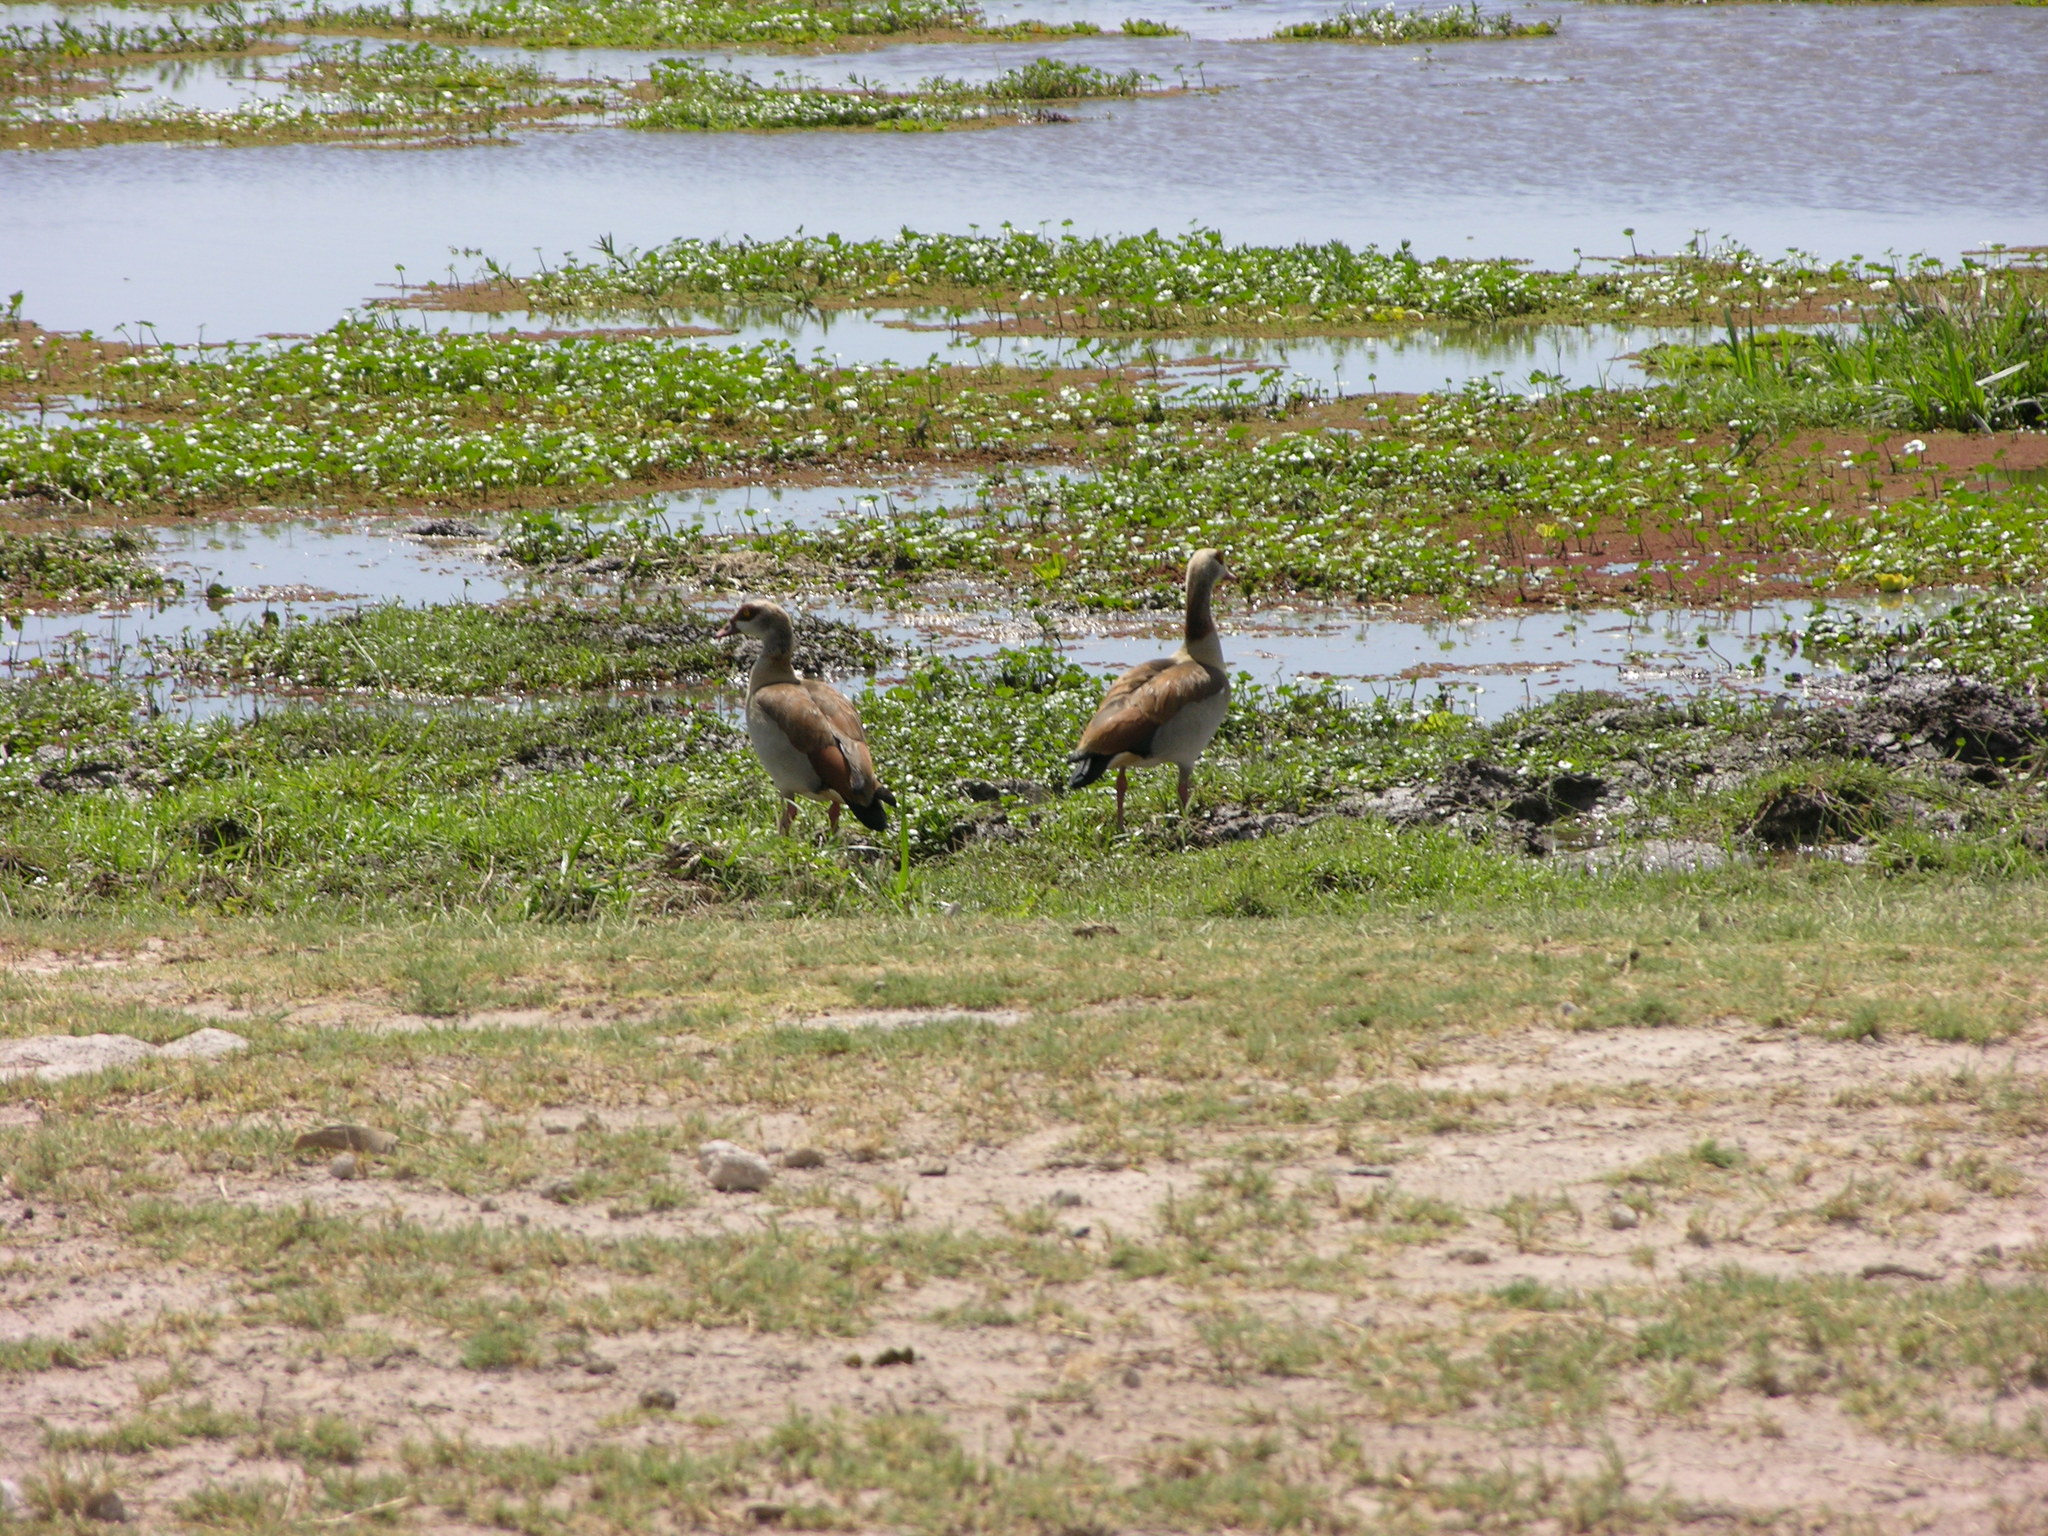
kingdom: Animalia
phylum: Chordata
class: Aves
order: Anseriformes
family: Anatidae
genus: Alopochen
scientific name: Alopochen aegyptiaca
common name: Egyptian goose
